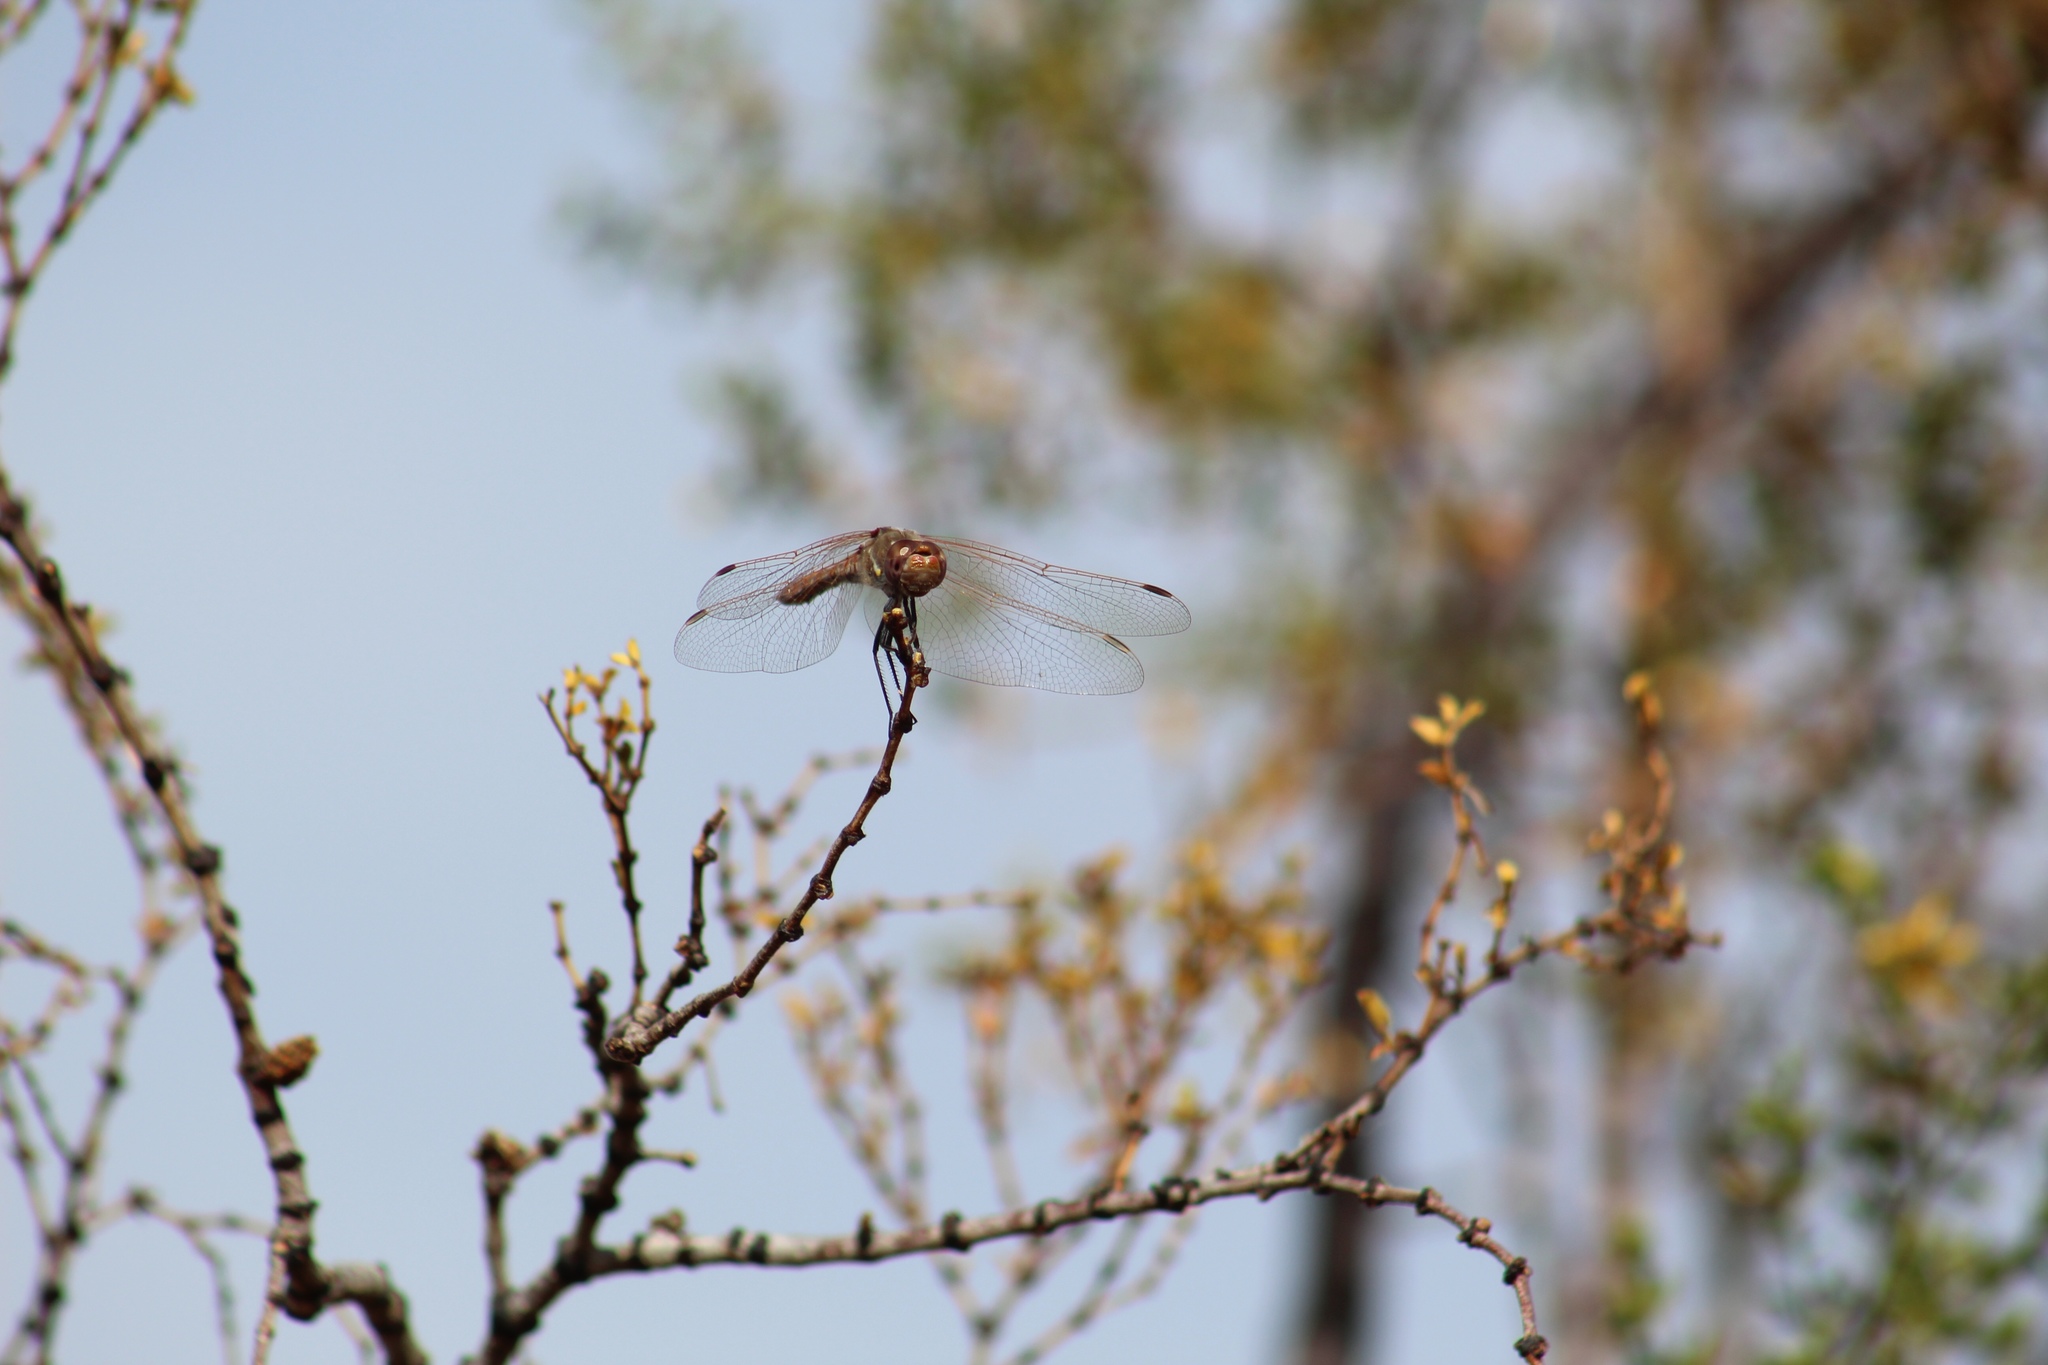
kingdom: Animalia
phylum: Arthropoda
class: Insecta
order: Odonata
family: Libellulidae
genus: Sympetrum
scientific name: Sympetrum corruptum
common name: Variegated meadowhawk
